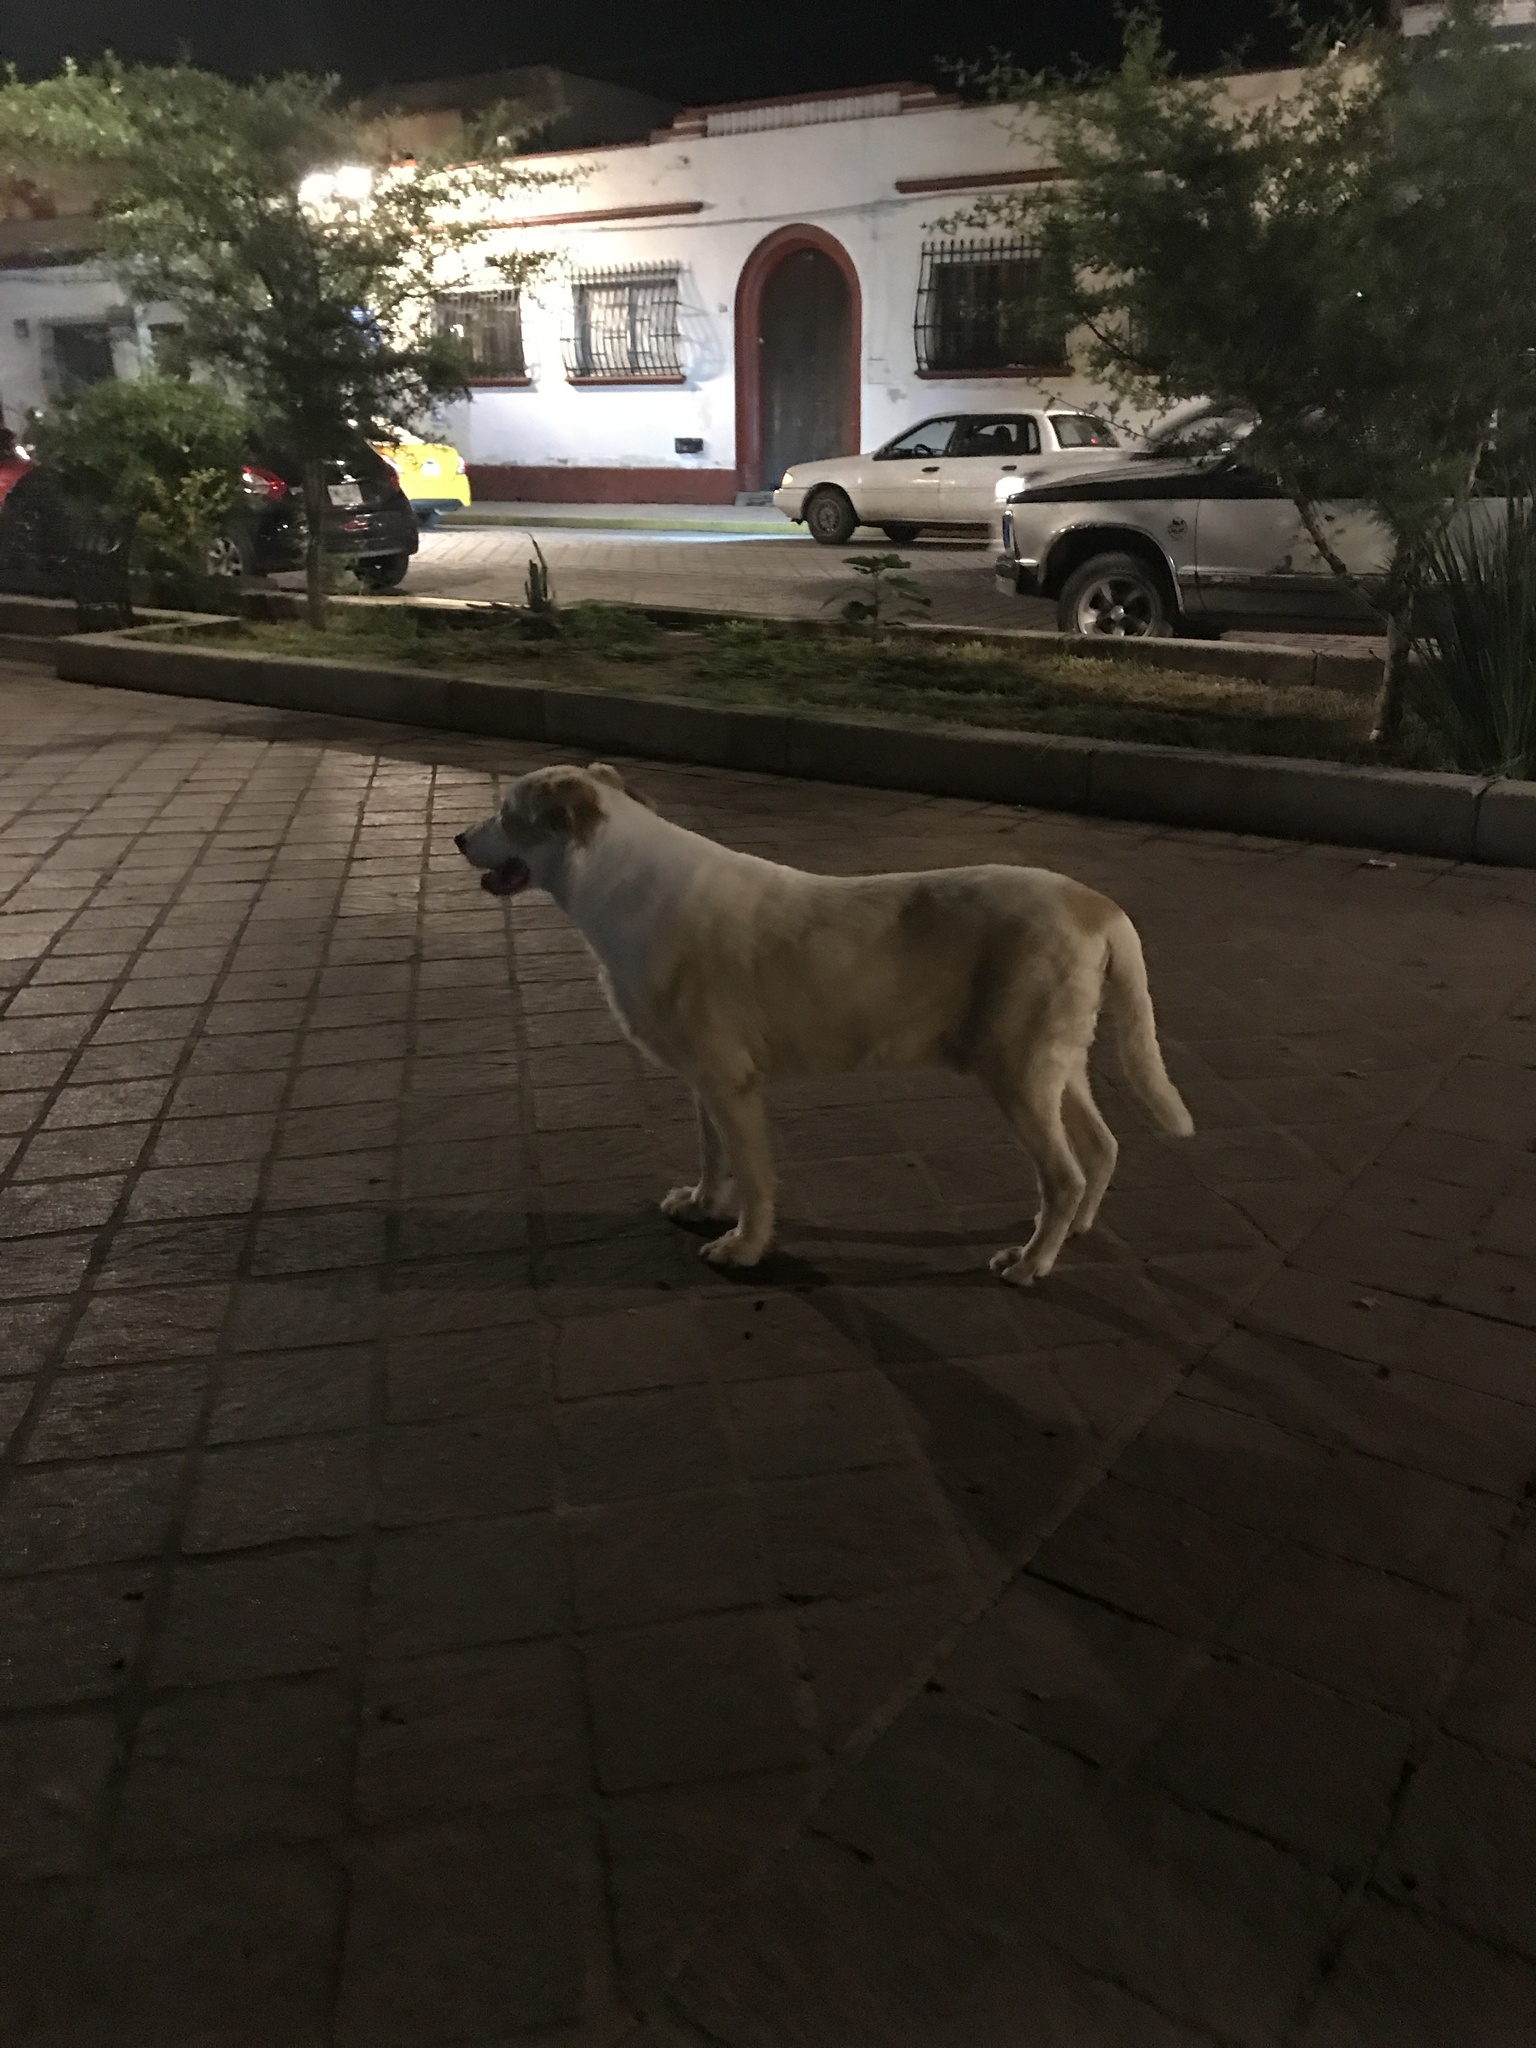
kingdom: Animalia
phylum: Chordata
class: Mammalia
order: Carnivora
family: Canidae
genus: Canis
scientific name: Canis lupus
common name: Gray wolf
